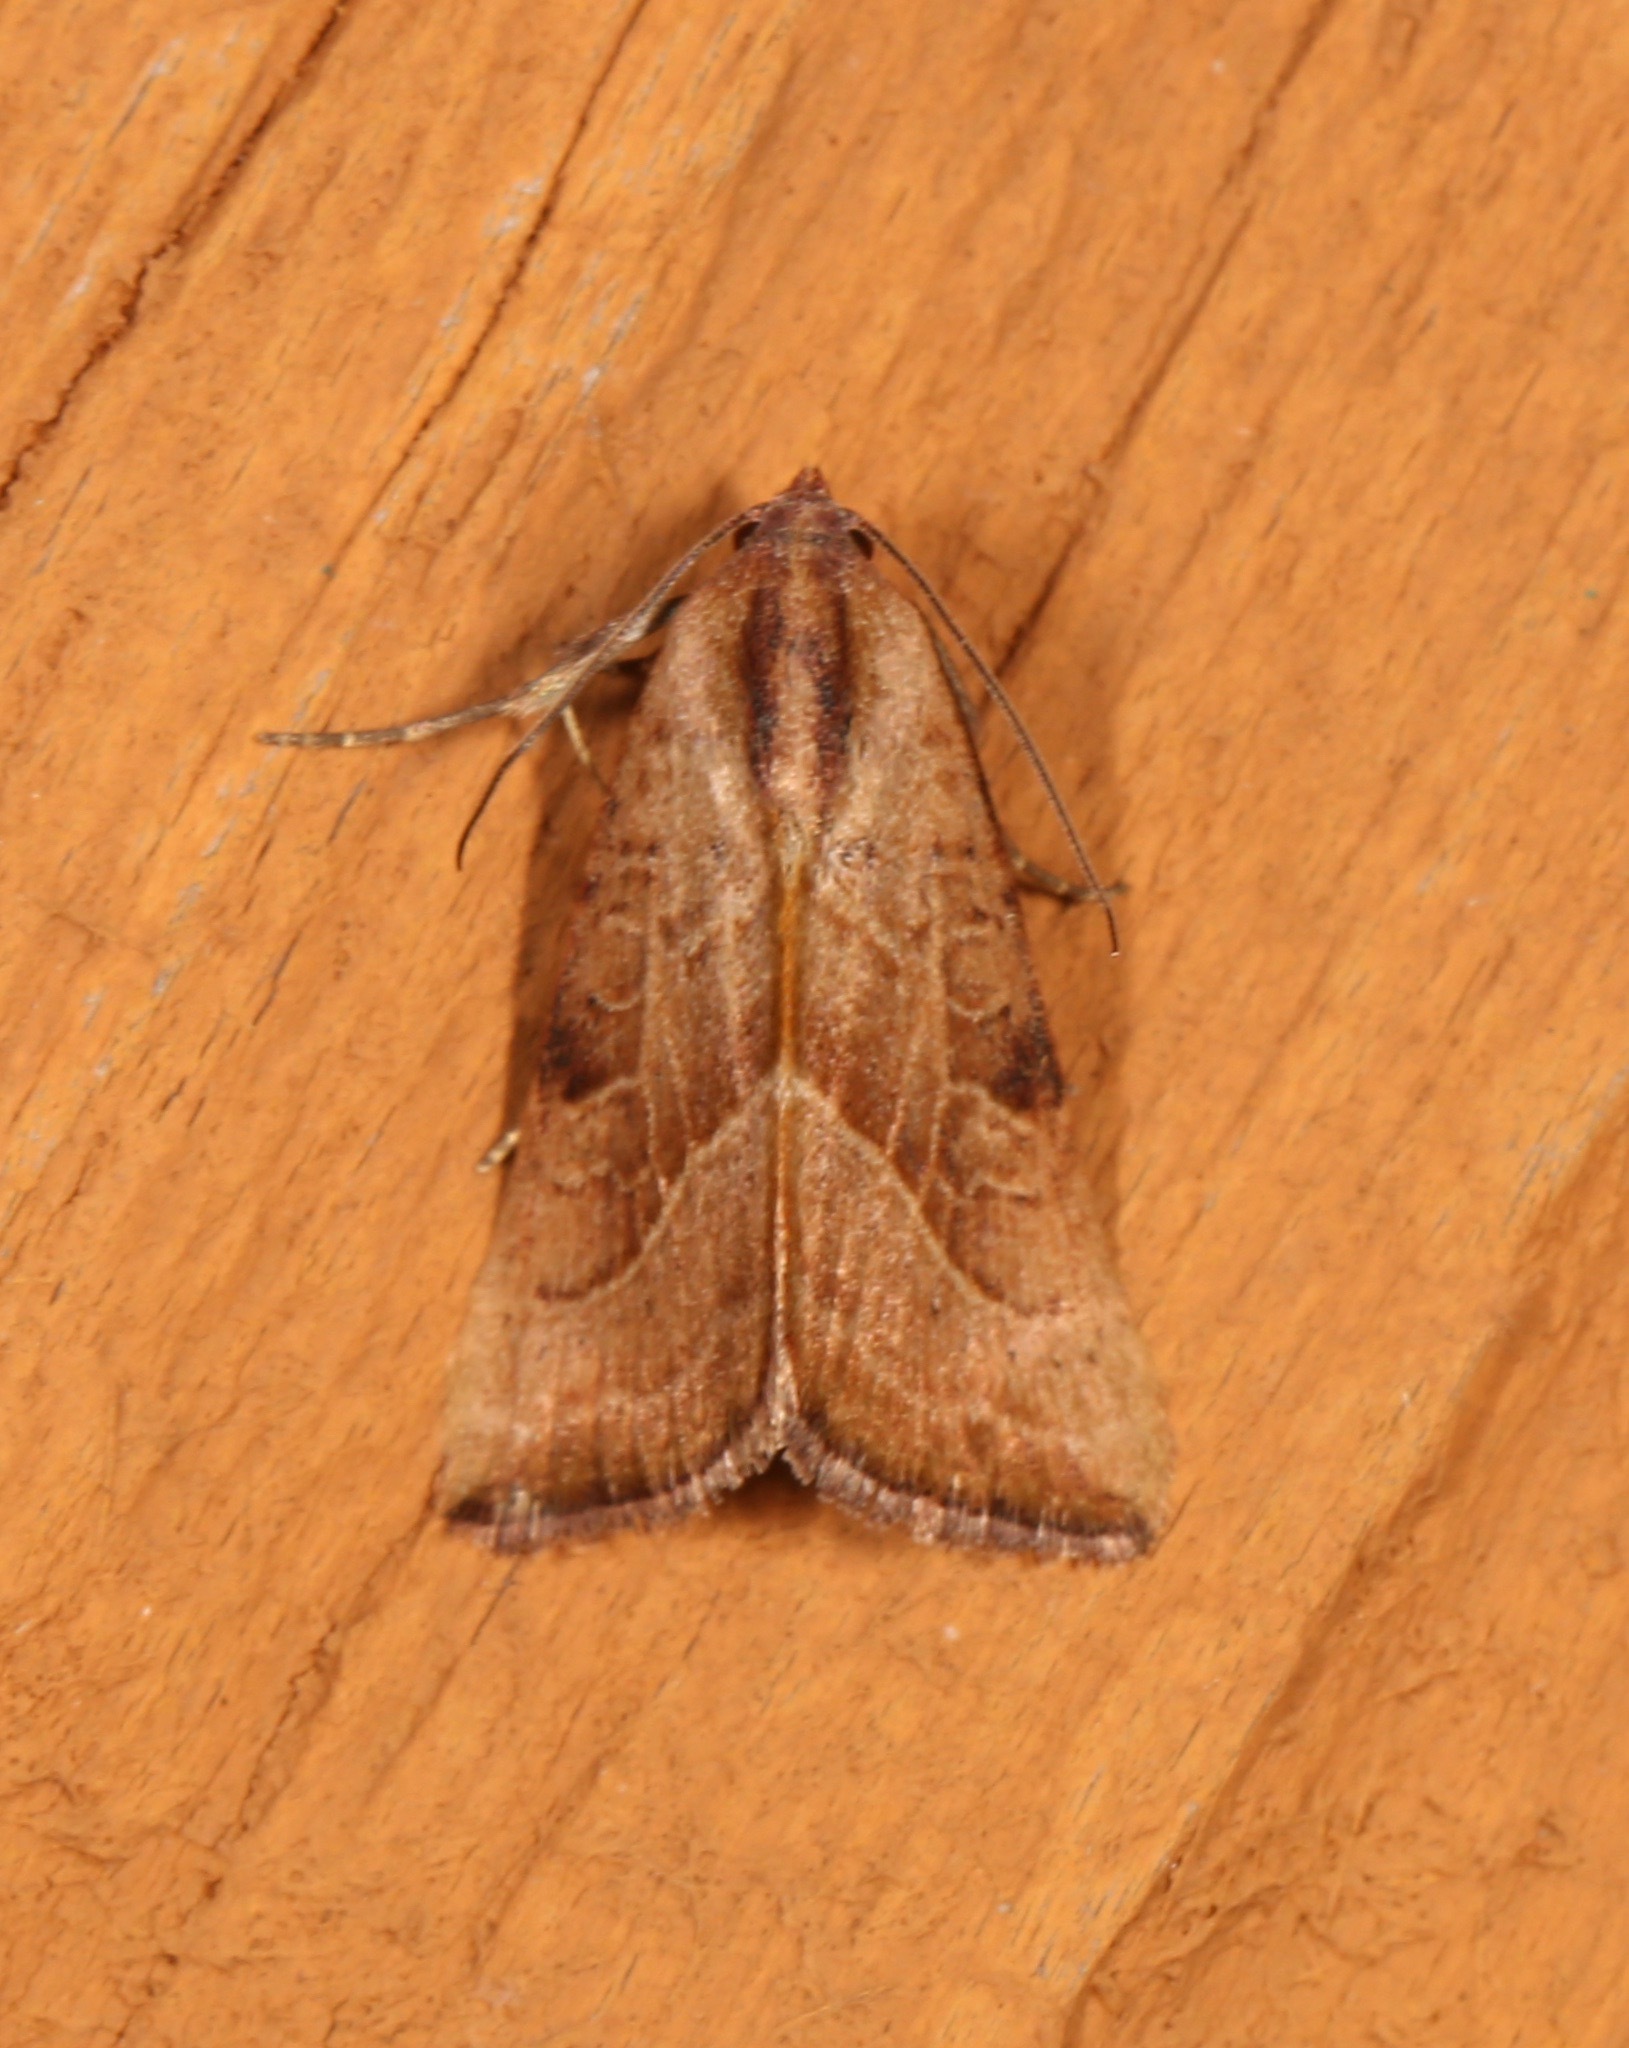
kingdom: Animalia
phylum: Arthropoda
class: Insecta
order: Lepidoptera
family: Noctuidae
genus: Galgula
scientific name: Galgula partita
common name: Wedgeling
